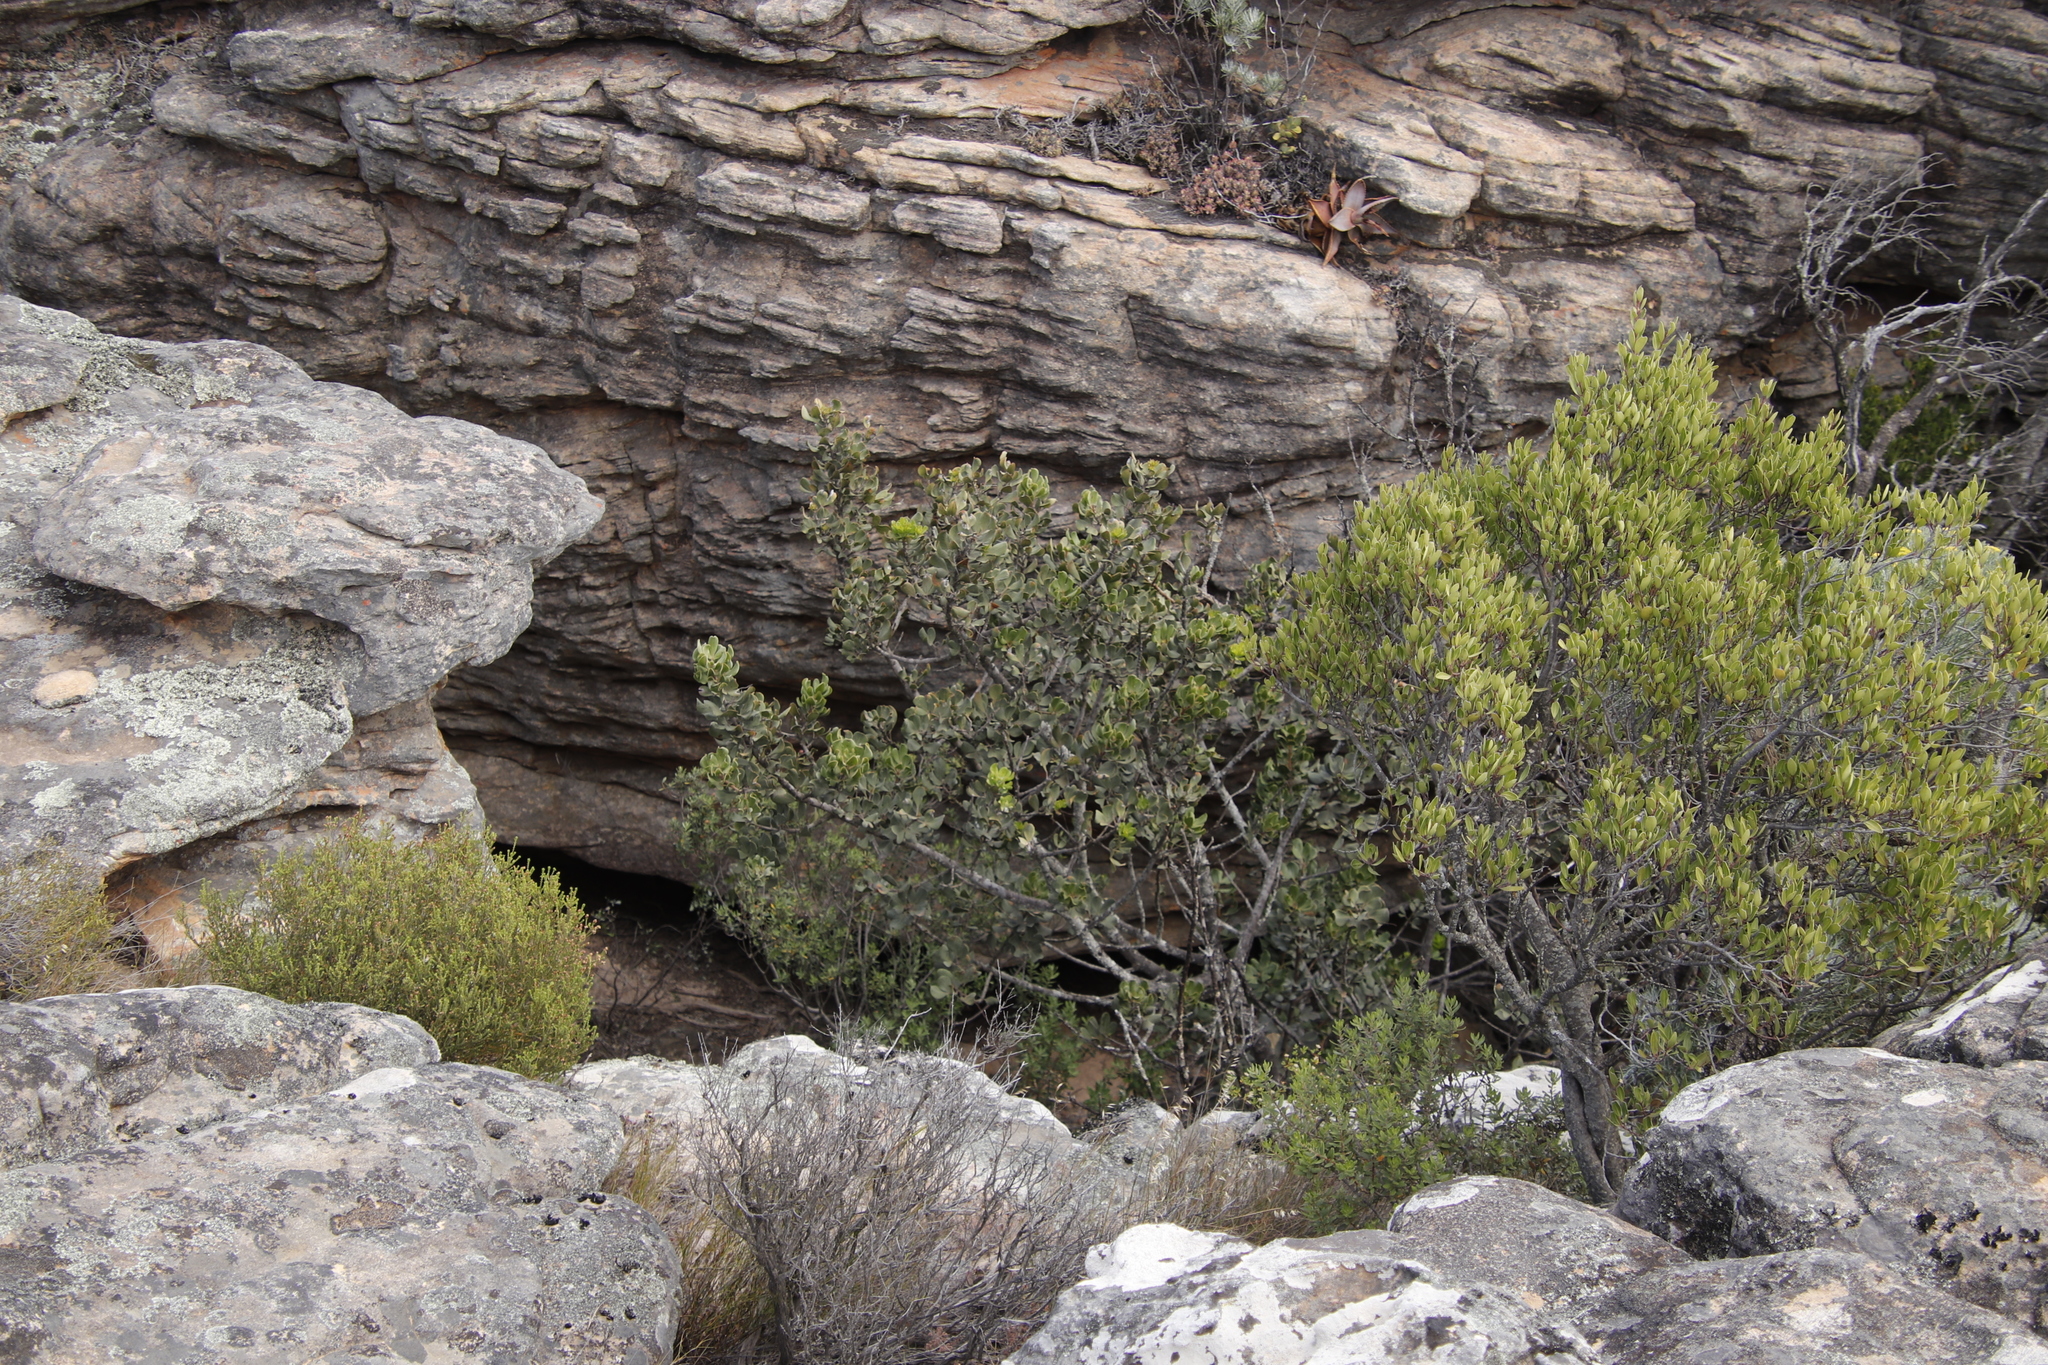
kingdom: Plantae
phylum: Tracheophyta
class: Magnoliopsida
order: Sapindales
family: Anacardiaceae
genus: Searsia
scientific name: Searsia scytophylla
